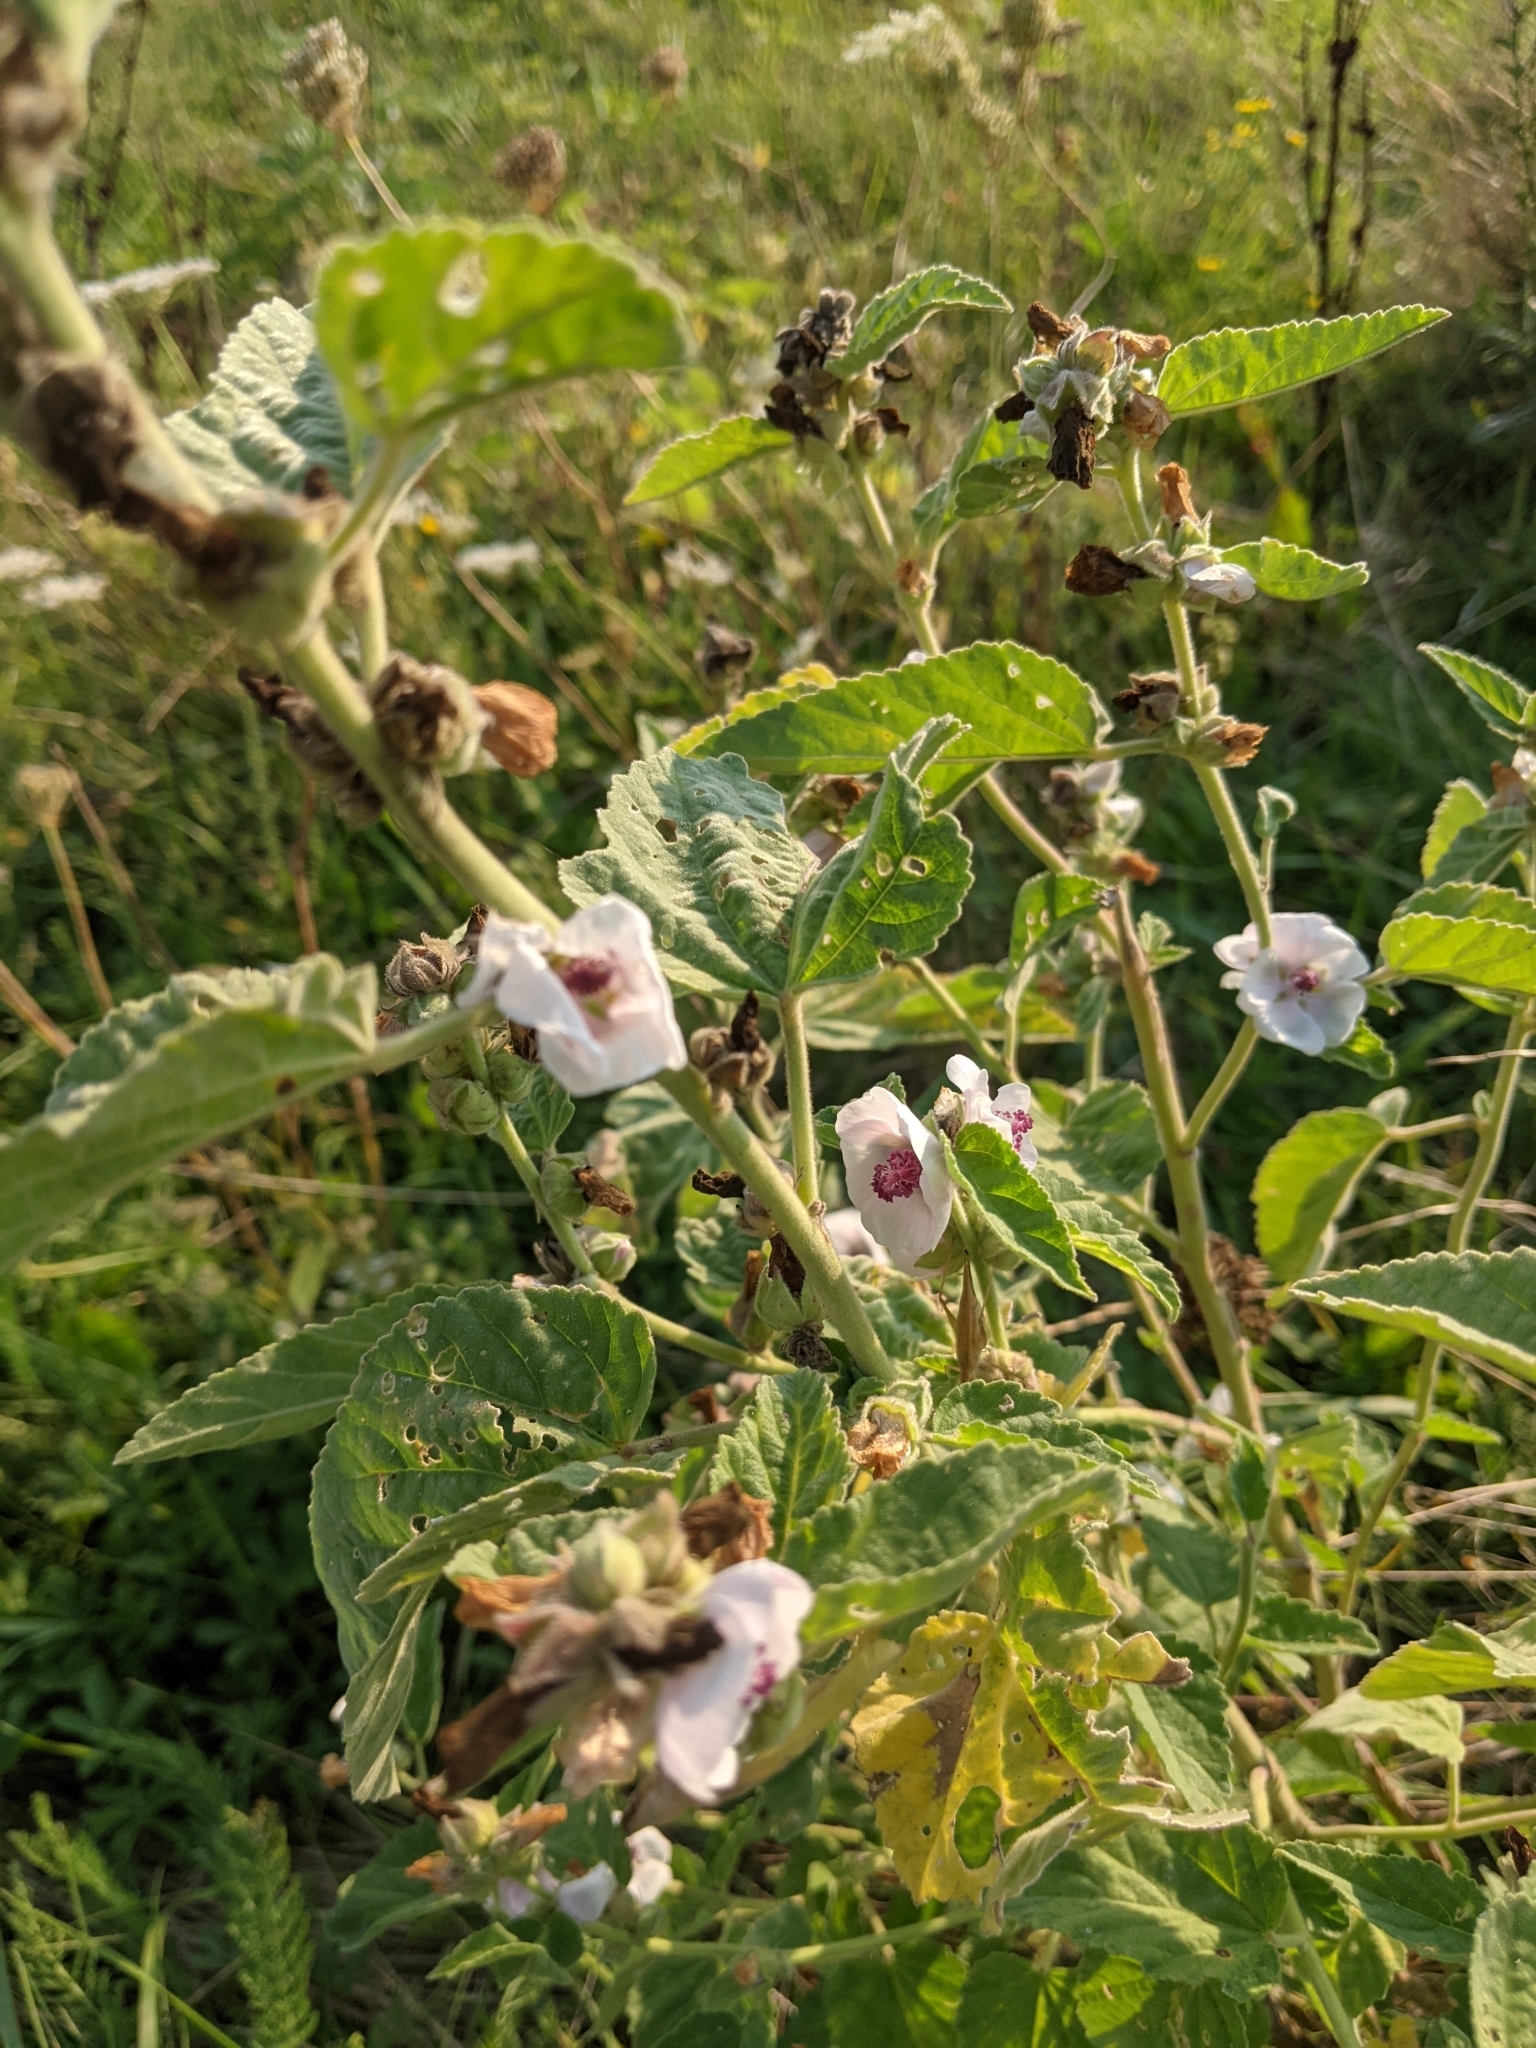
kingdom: Plantae
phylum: Tracheophyta
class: Magnoliopsida
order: Malvales
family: Malvaceae
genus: Althaea
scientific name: Althaea officinalis
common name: Marsh-mallow
